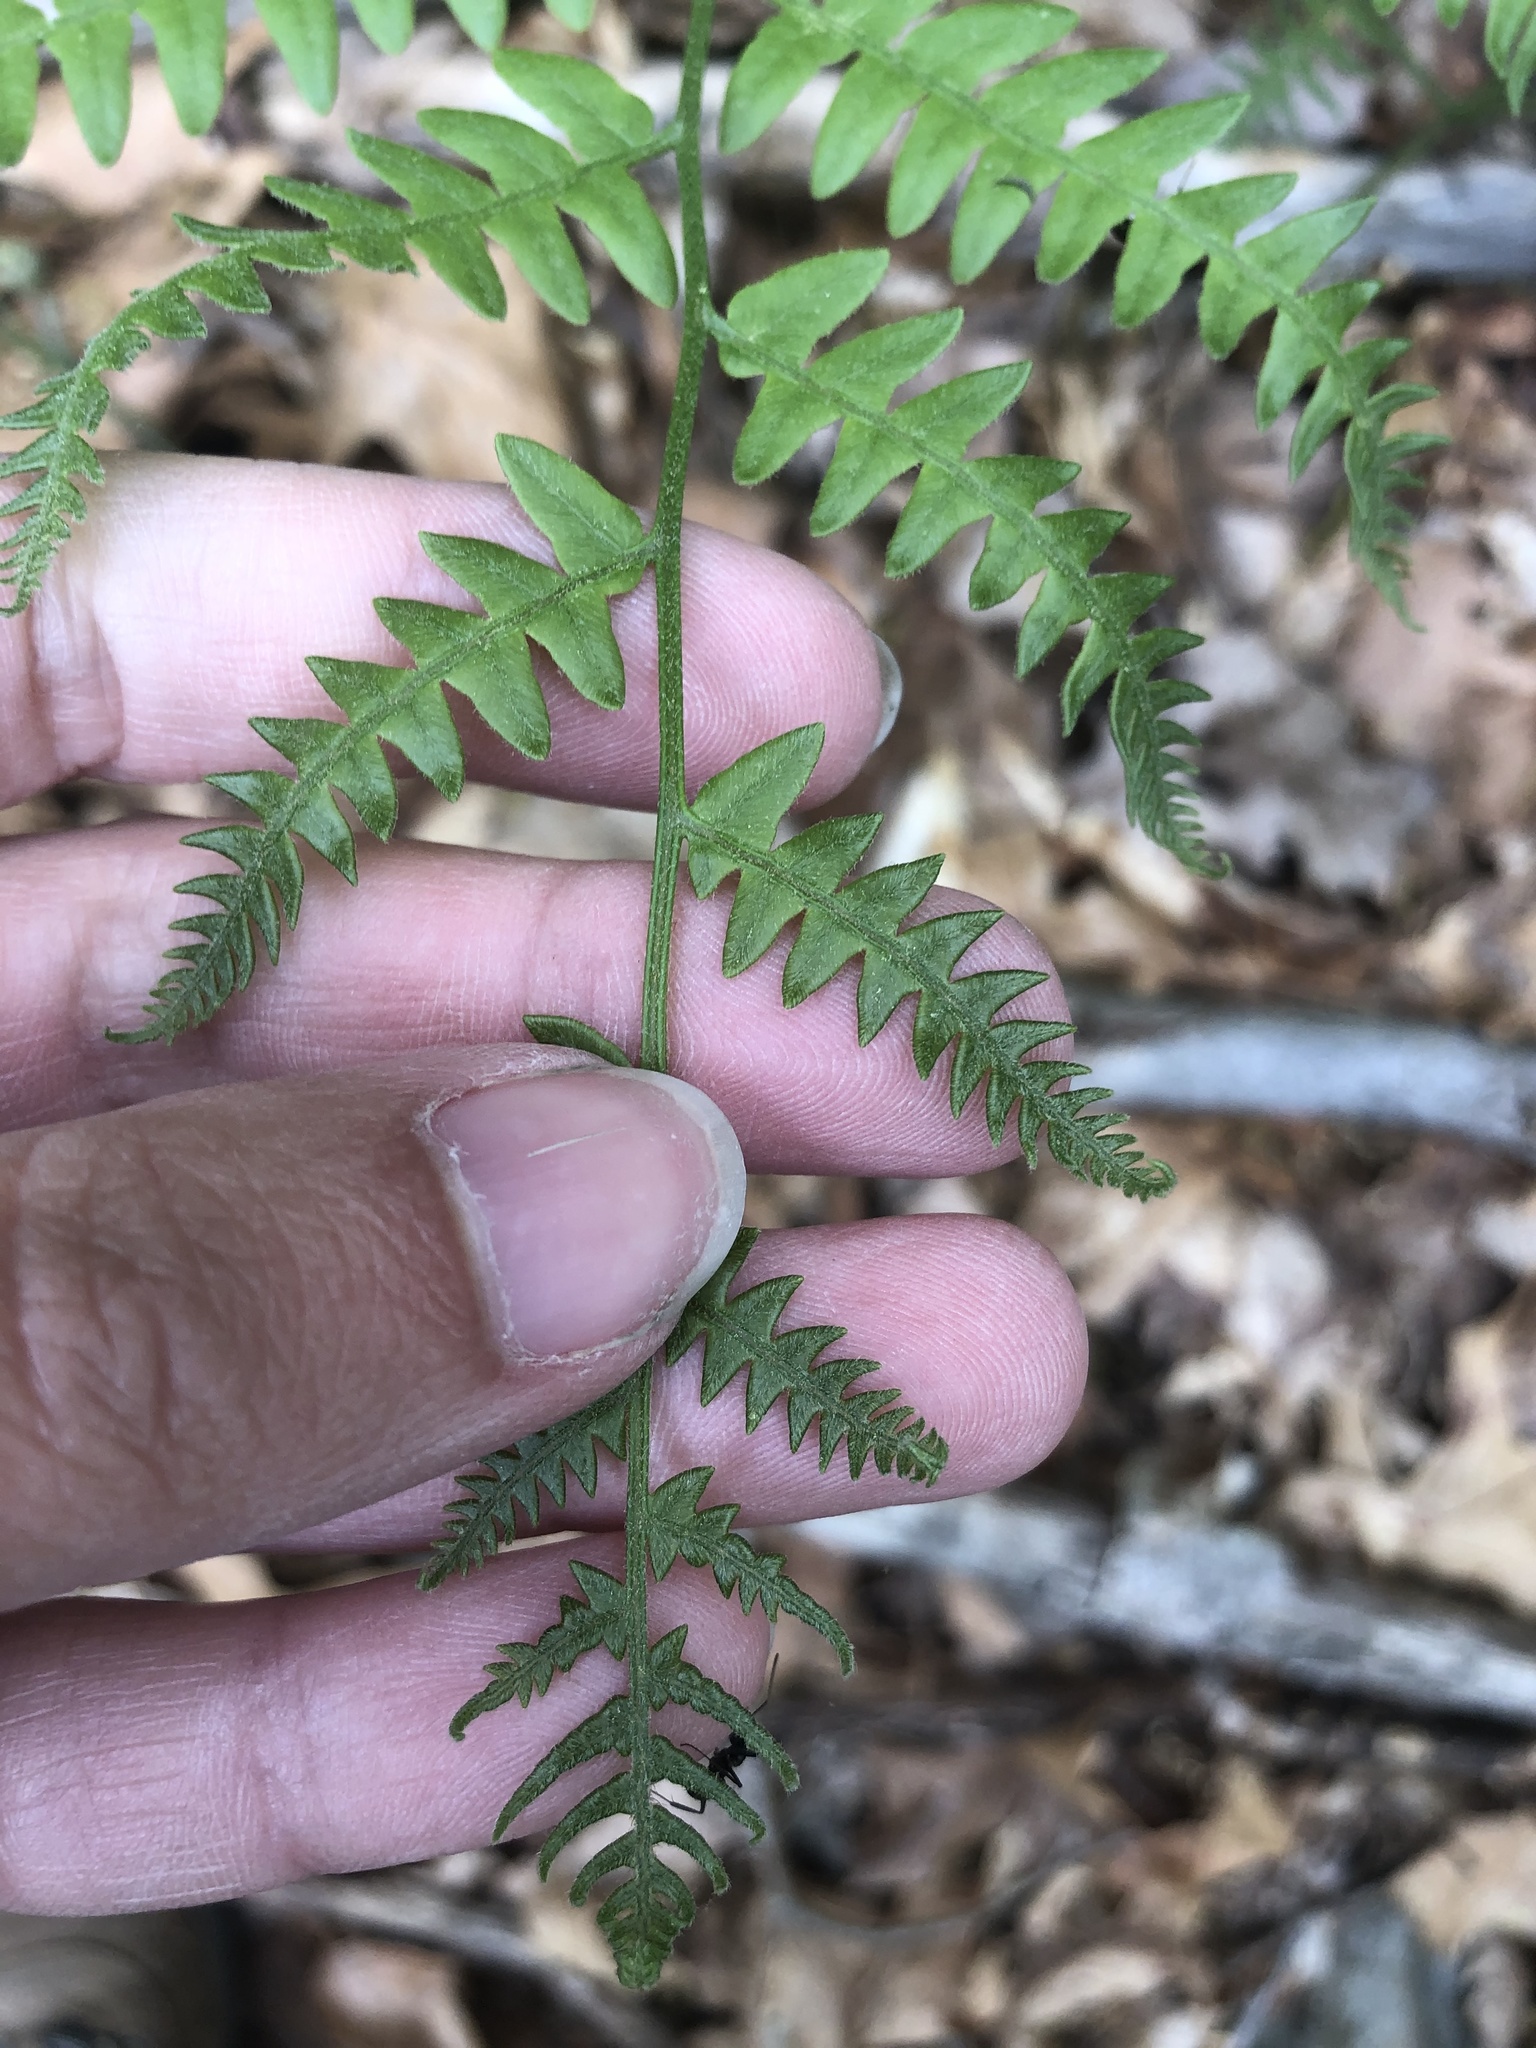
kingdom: Plantae
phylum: Tracheophyta
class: Polypodiopsida
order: Polypodiales
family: Dennstaedtiaceae
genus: Pteridium
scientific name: Pteridium aquilinum
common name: Bracken
